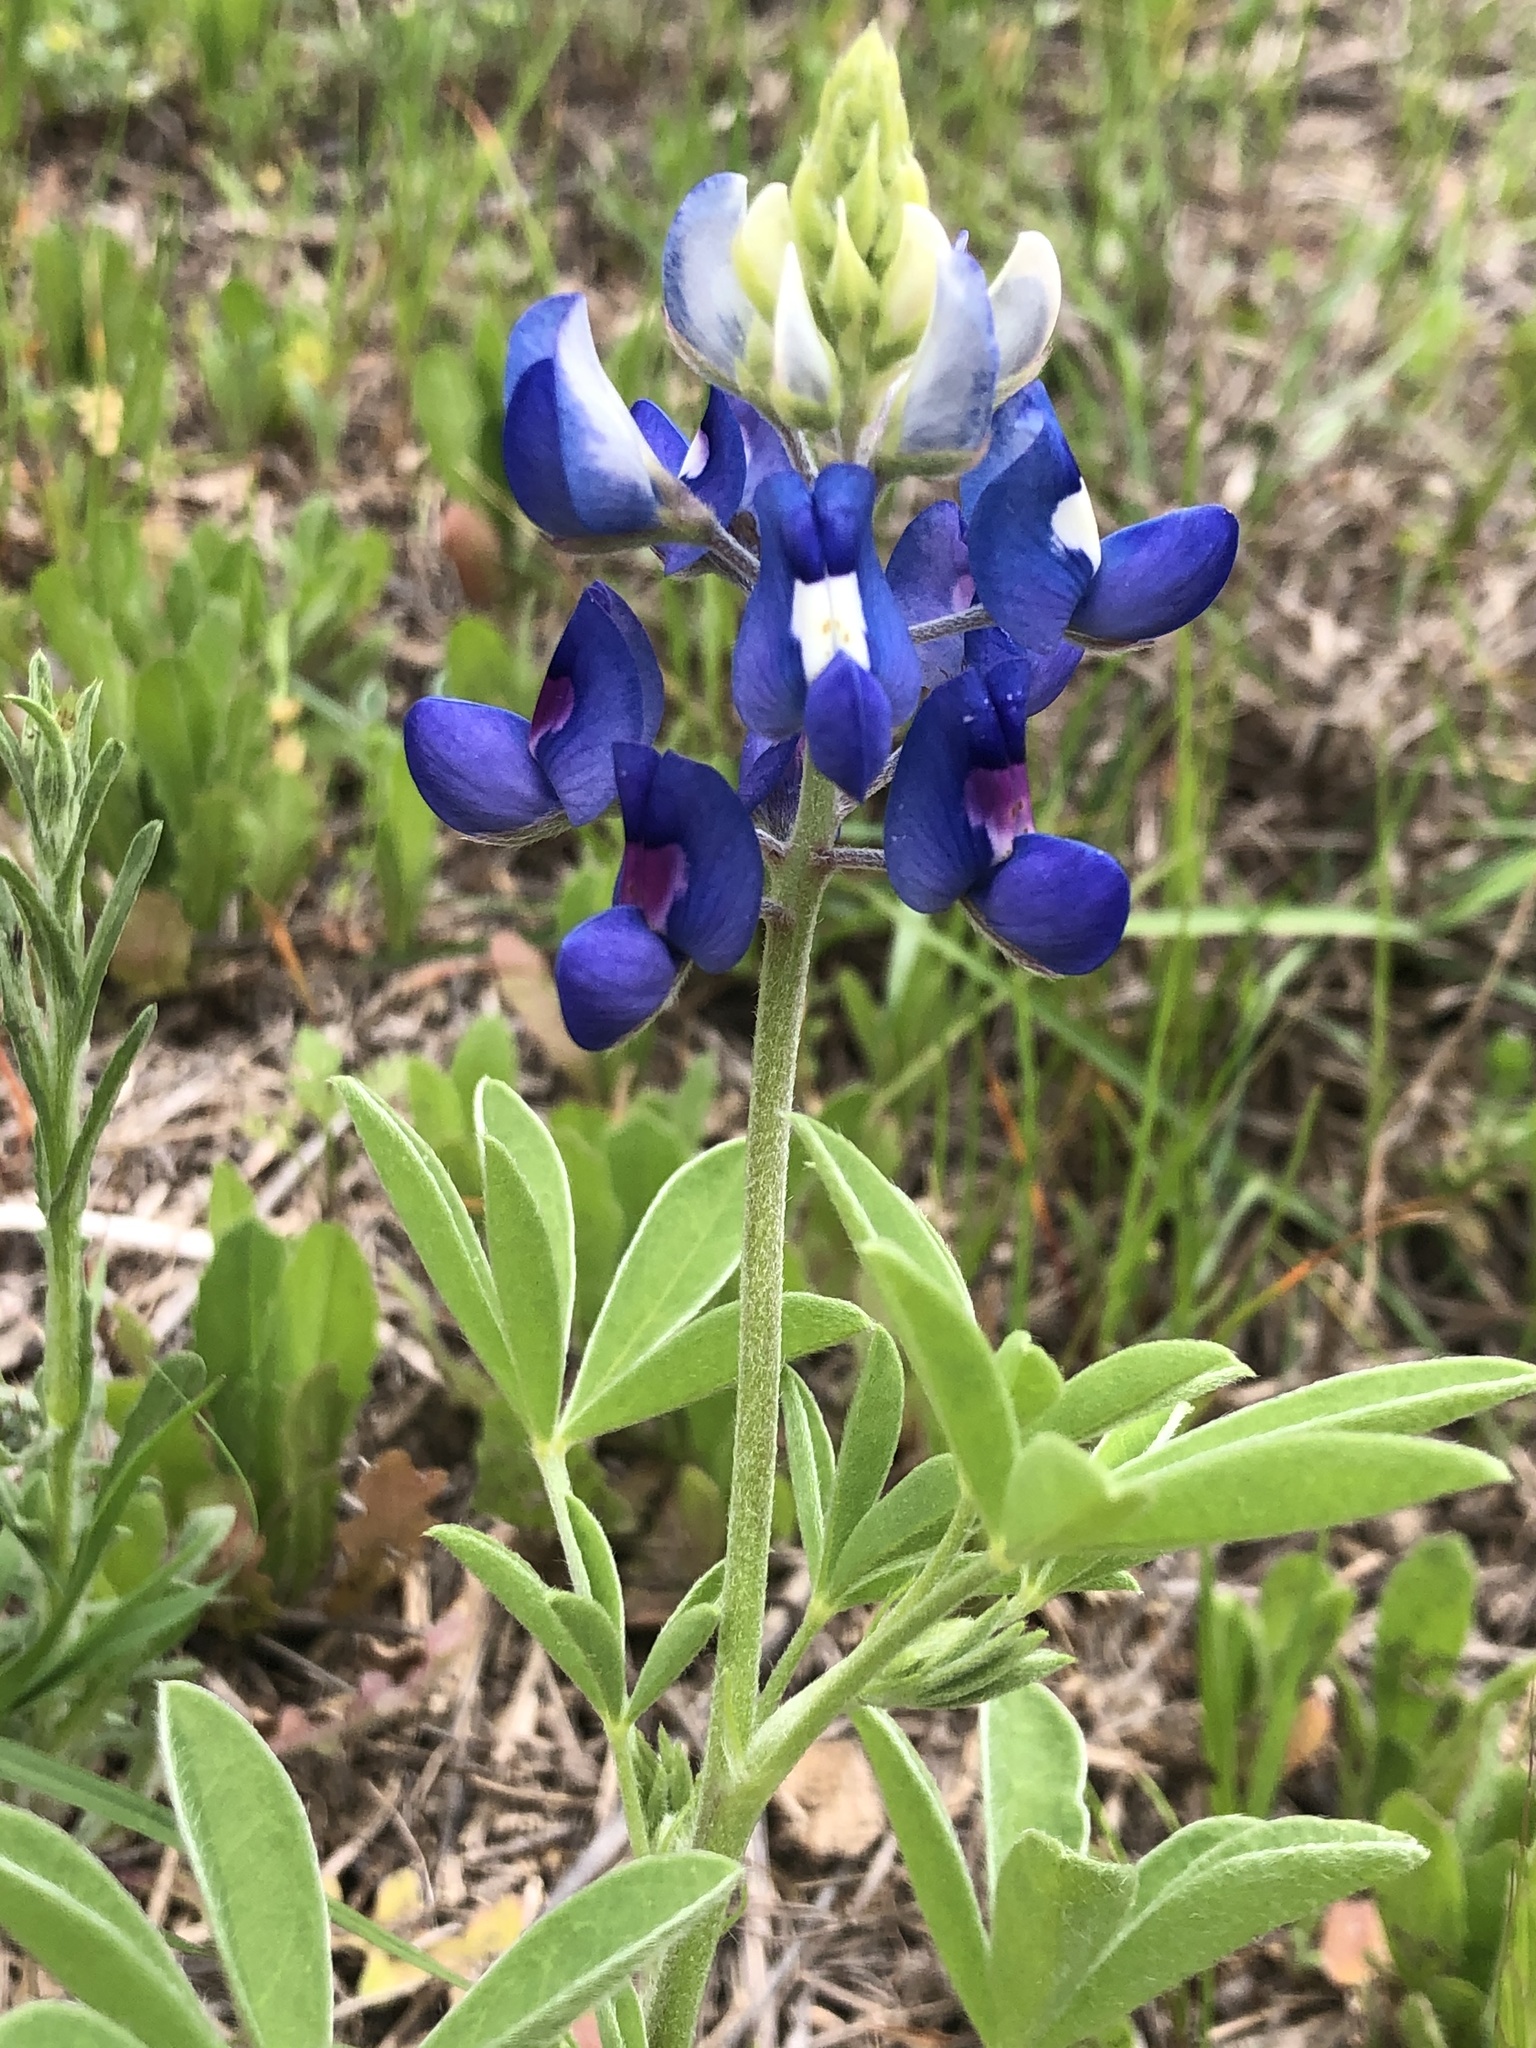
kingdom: Plantae
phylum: Tracheophyta
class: Magnoliopsida
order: Fabales
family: Fabaceae
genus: Lupinus
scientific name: Lupinus texensis
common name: Texas bluebonnet
